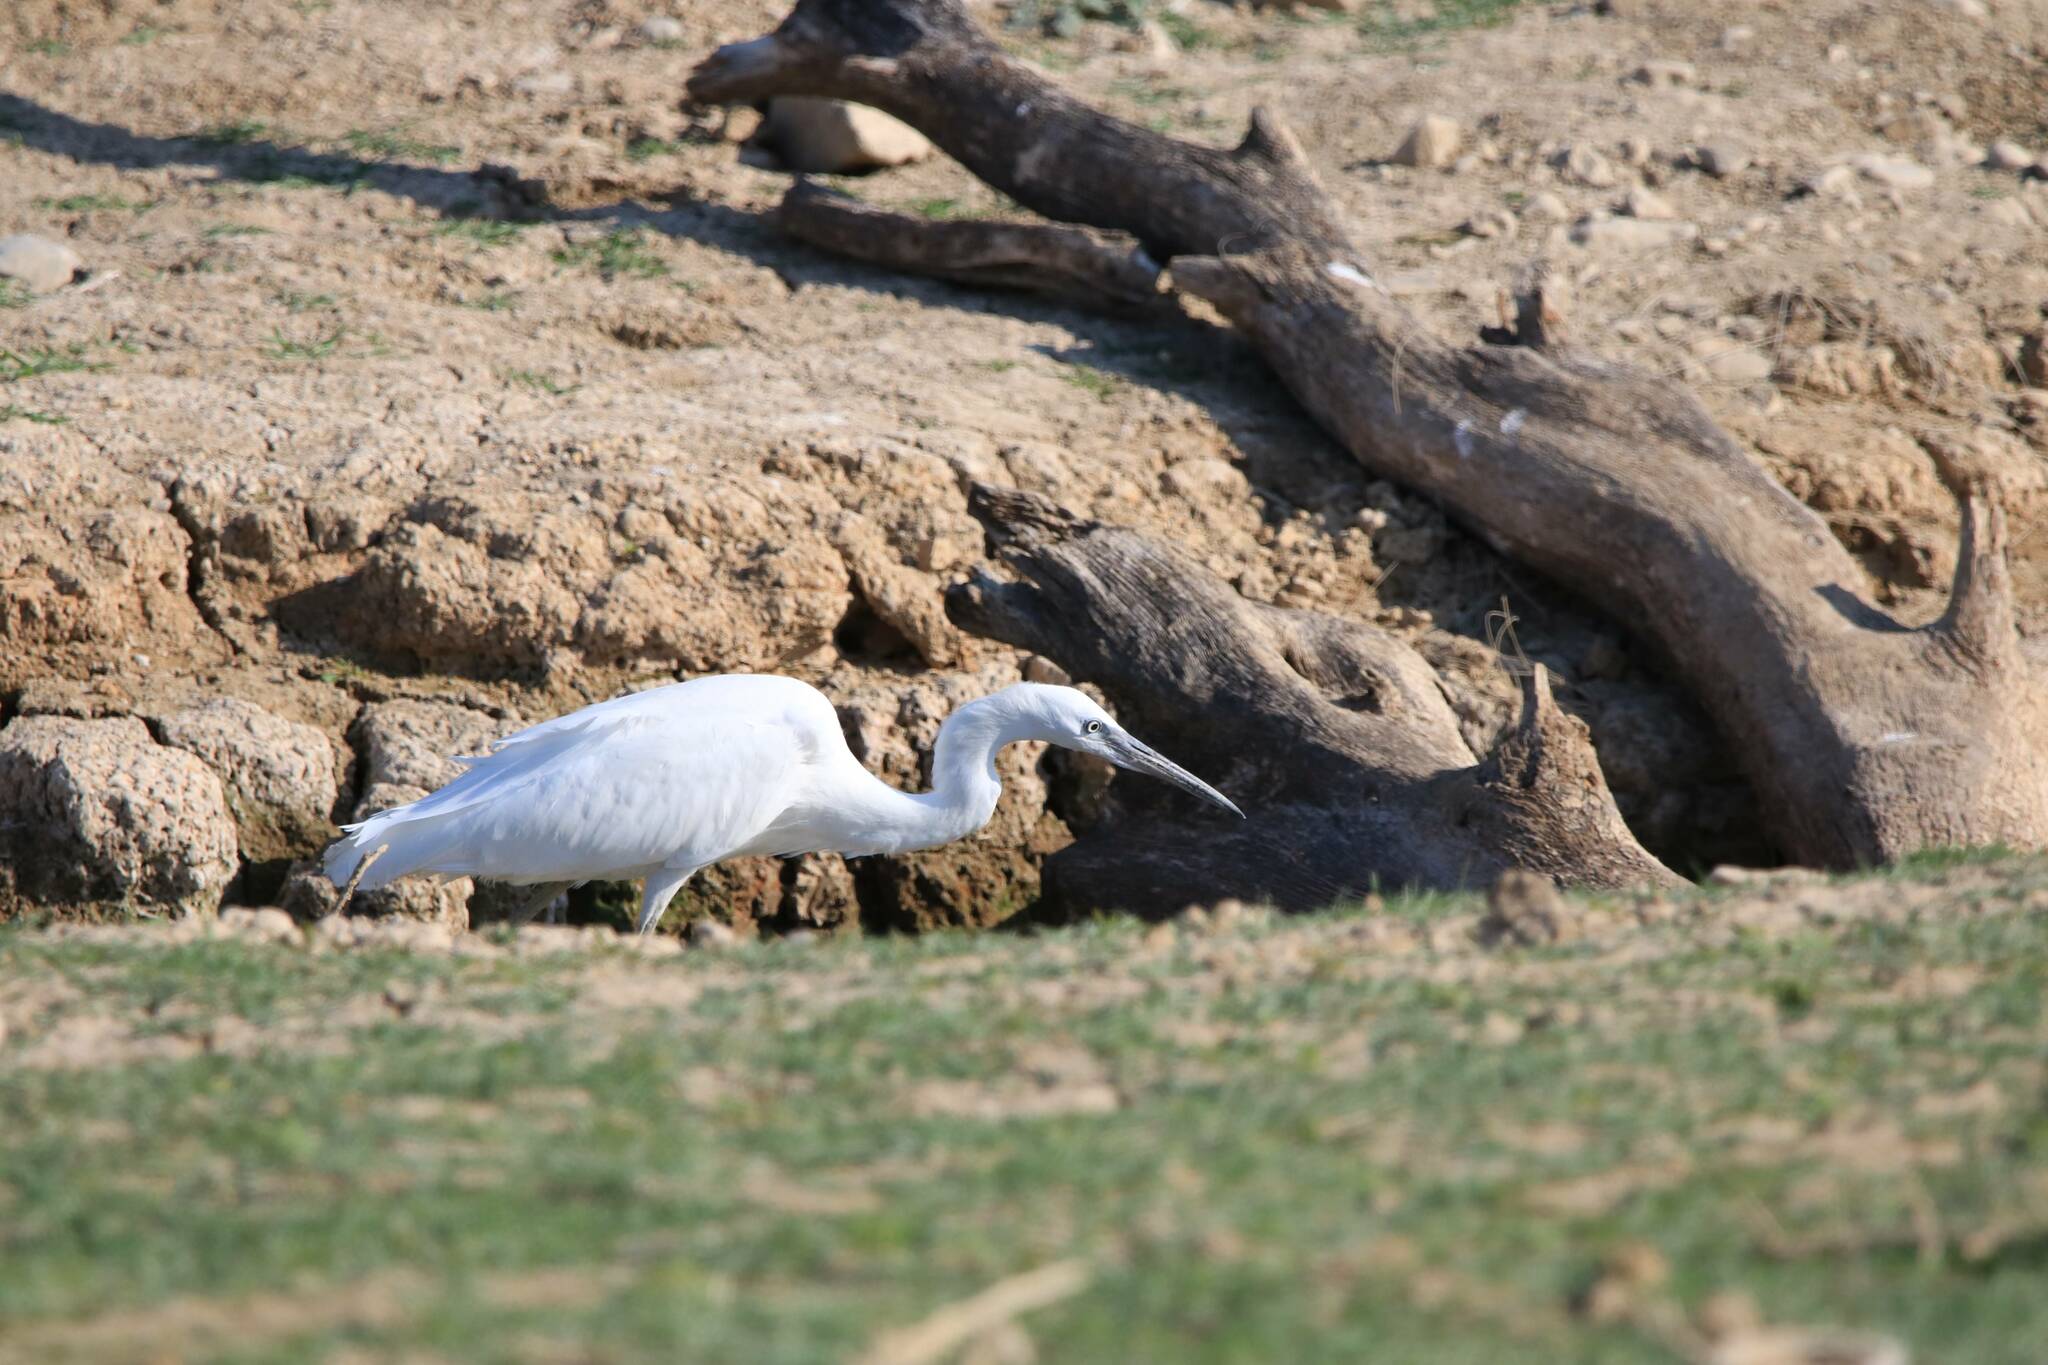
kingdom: Animalia
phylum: Chordata
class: Aves
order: Pelecaniformes
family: Ardeidae
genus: Egretta
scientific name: Egretta garzetta
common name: Little egret
